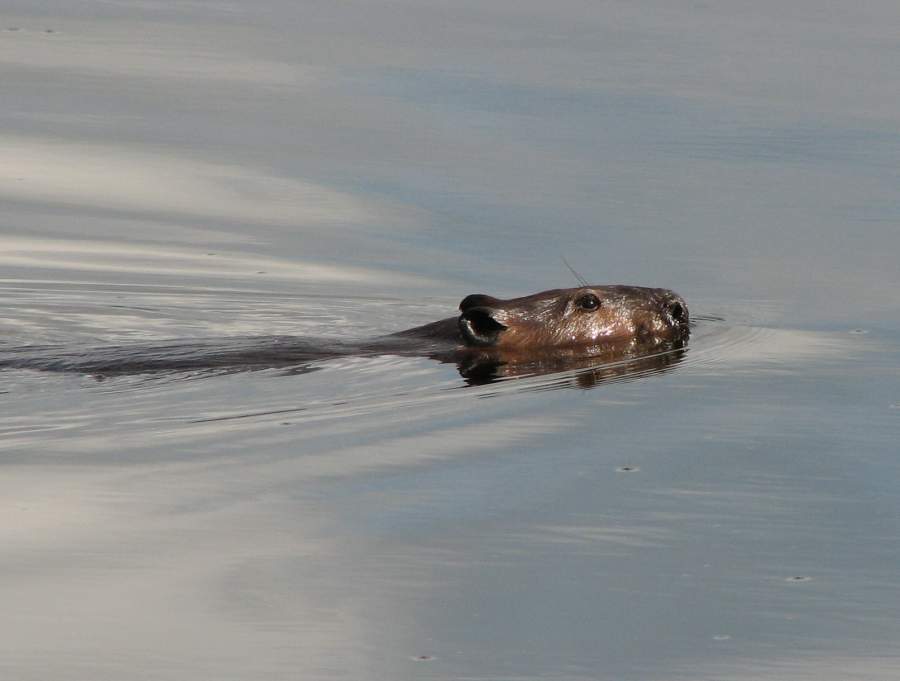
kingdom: Animalia
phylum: Chordata
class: Mammalia
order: Rodentia
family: Castoridae
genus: Castor
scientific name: Castor canadensis
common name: American beaver
